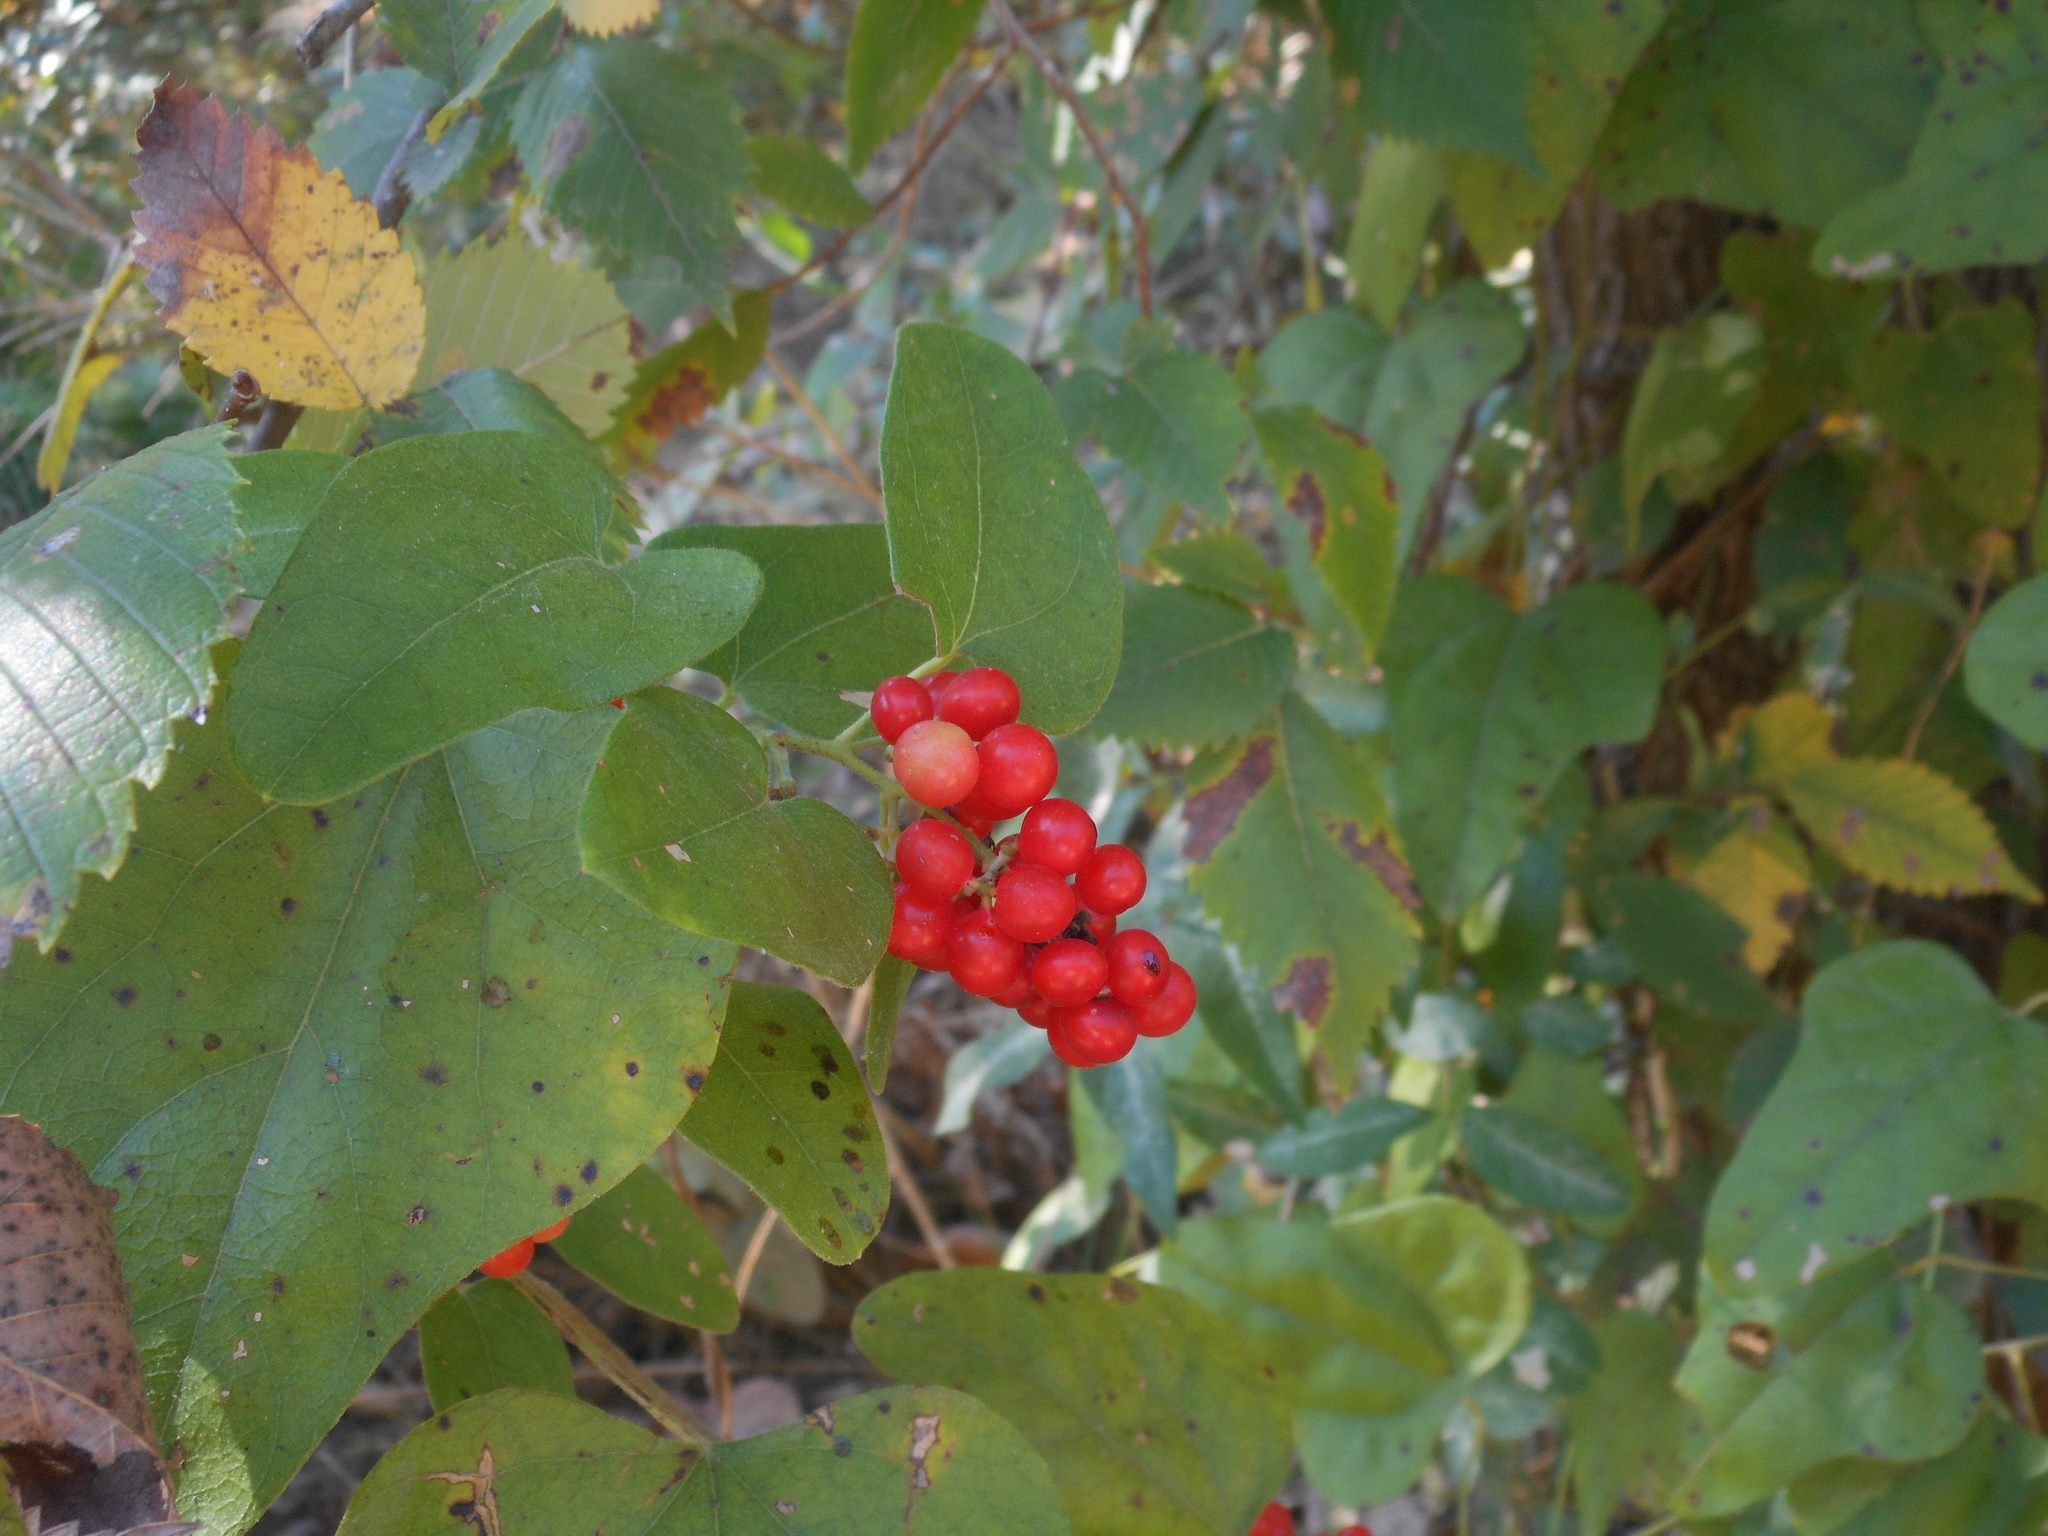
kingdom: Plantae
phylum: Tracheophyta
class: Magnoliopsida
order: Ranunculales
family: Menispermaceae
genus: Cocculus
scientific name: Cocculus carolinus
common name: Carolina moonseed
